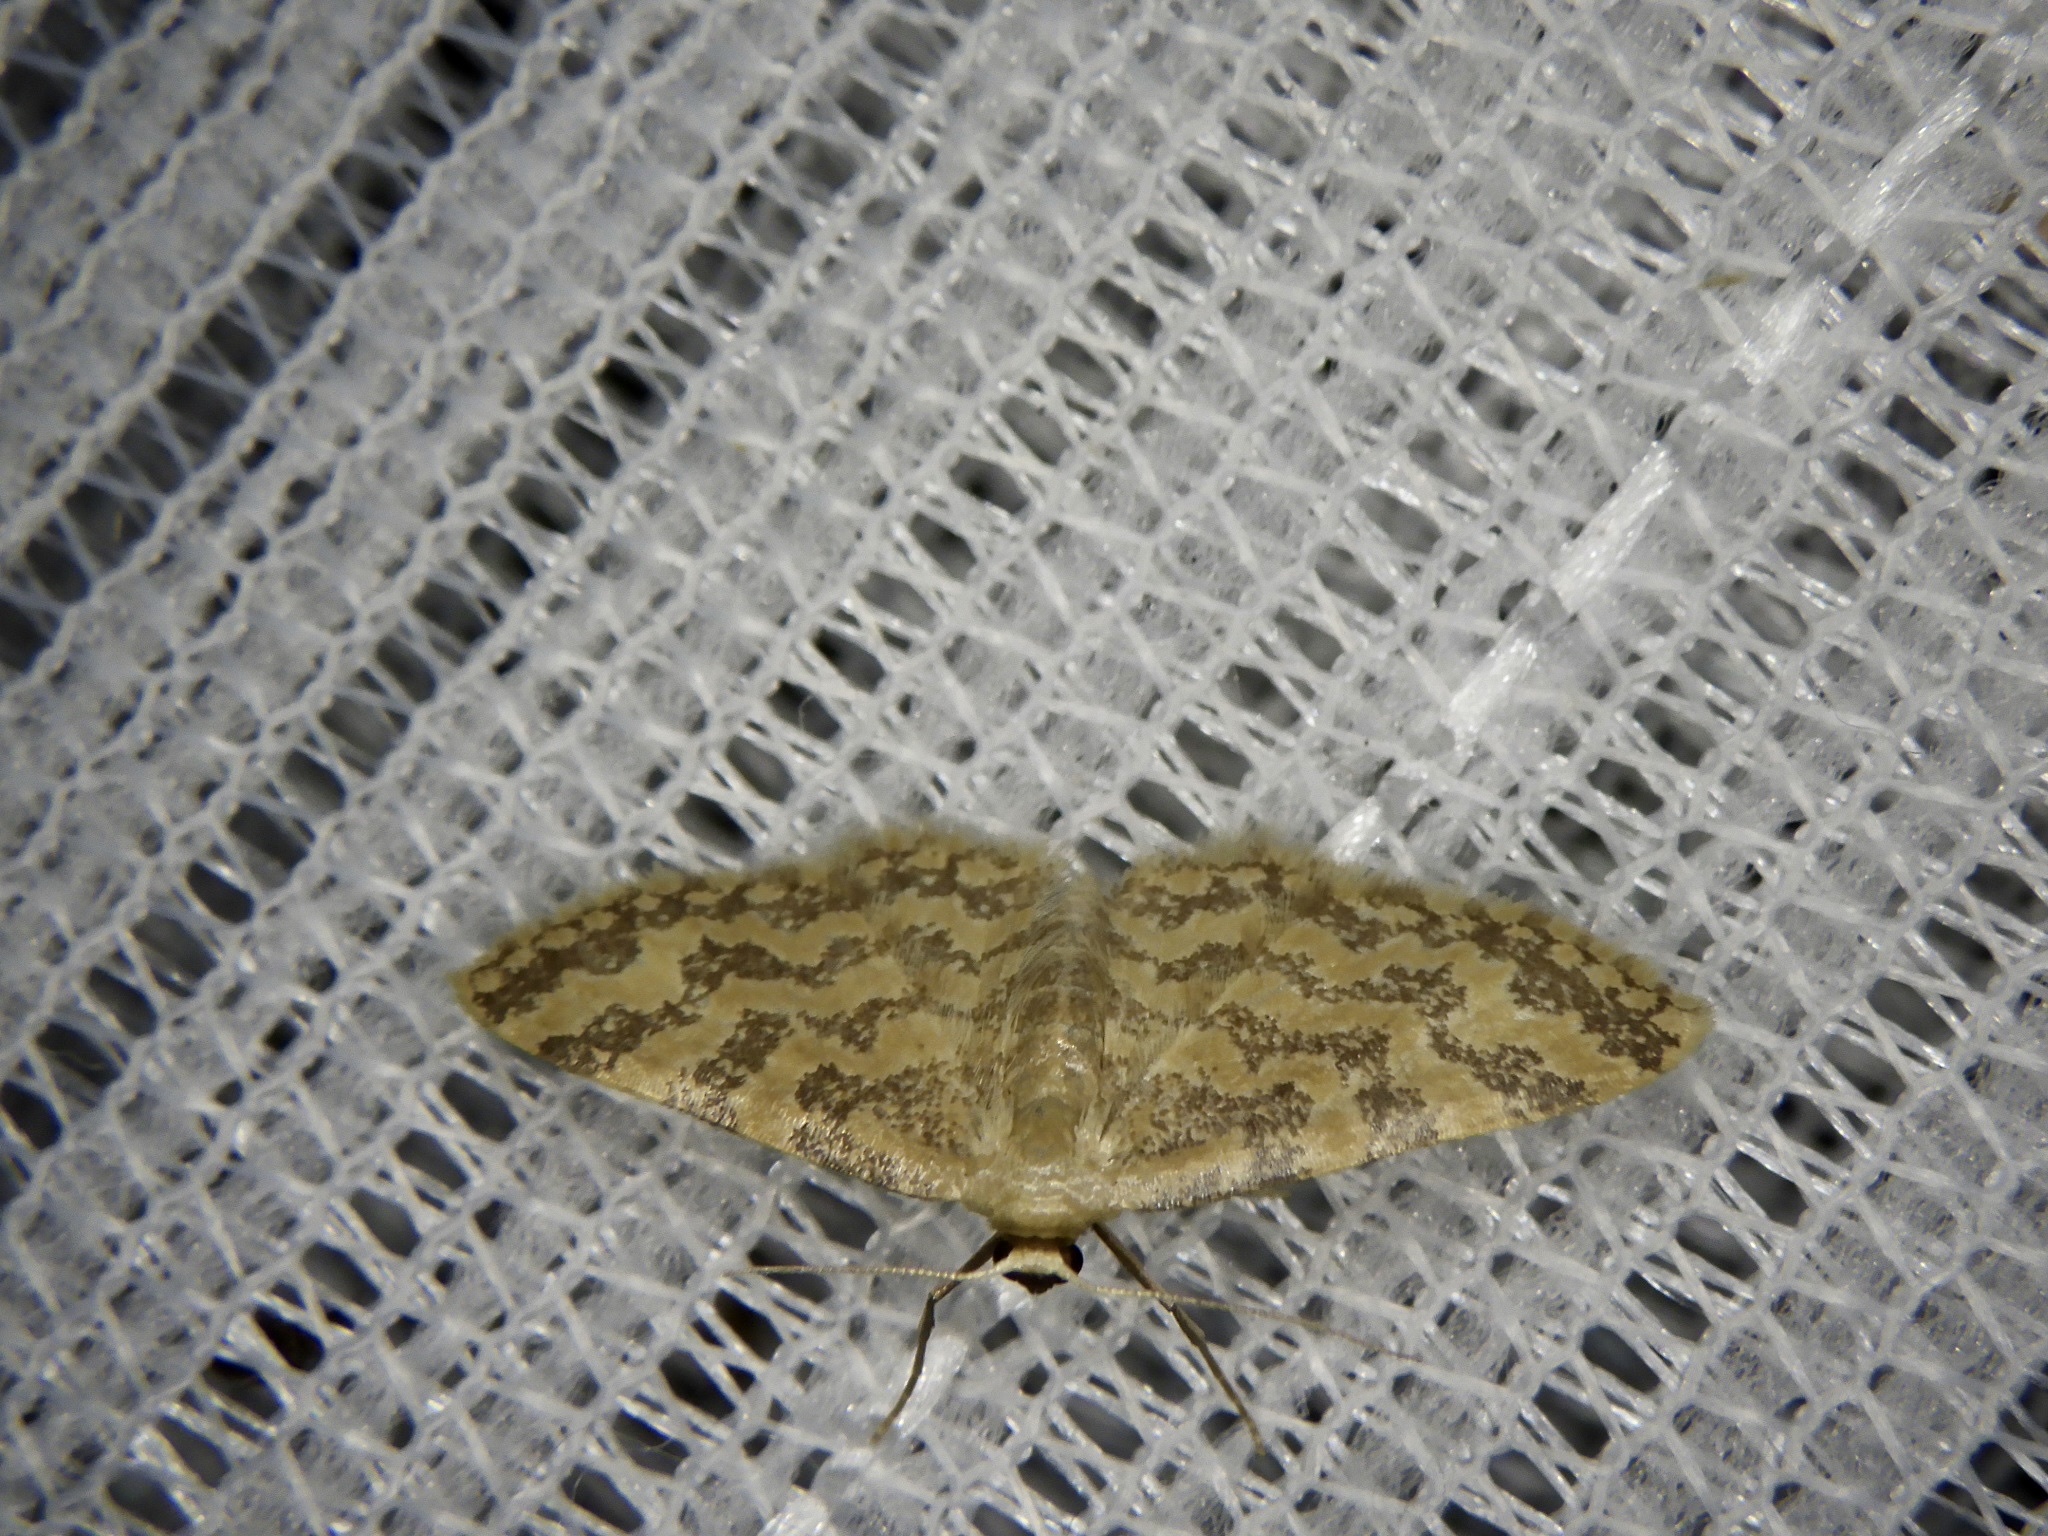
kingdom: Animalia
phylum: Arthropoda
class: Insecta
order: Lepidoptera
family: Geometridae
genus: Idaea
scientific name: Idaea auricruda
